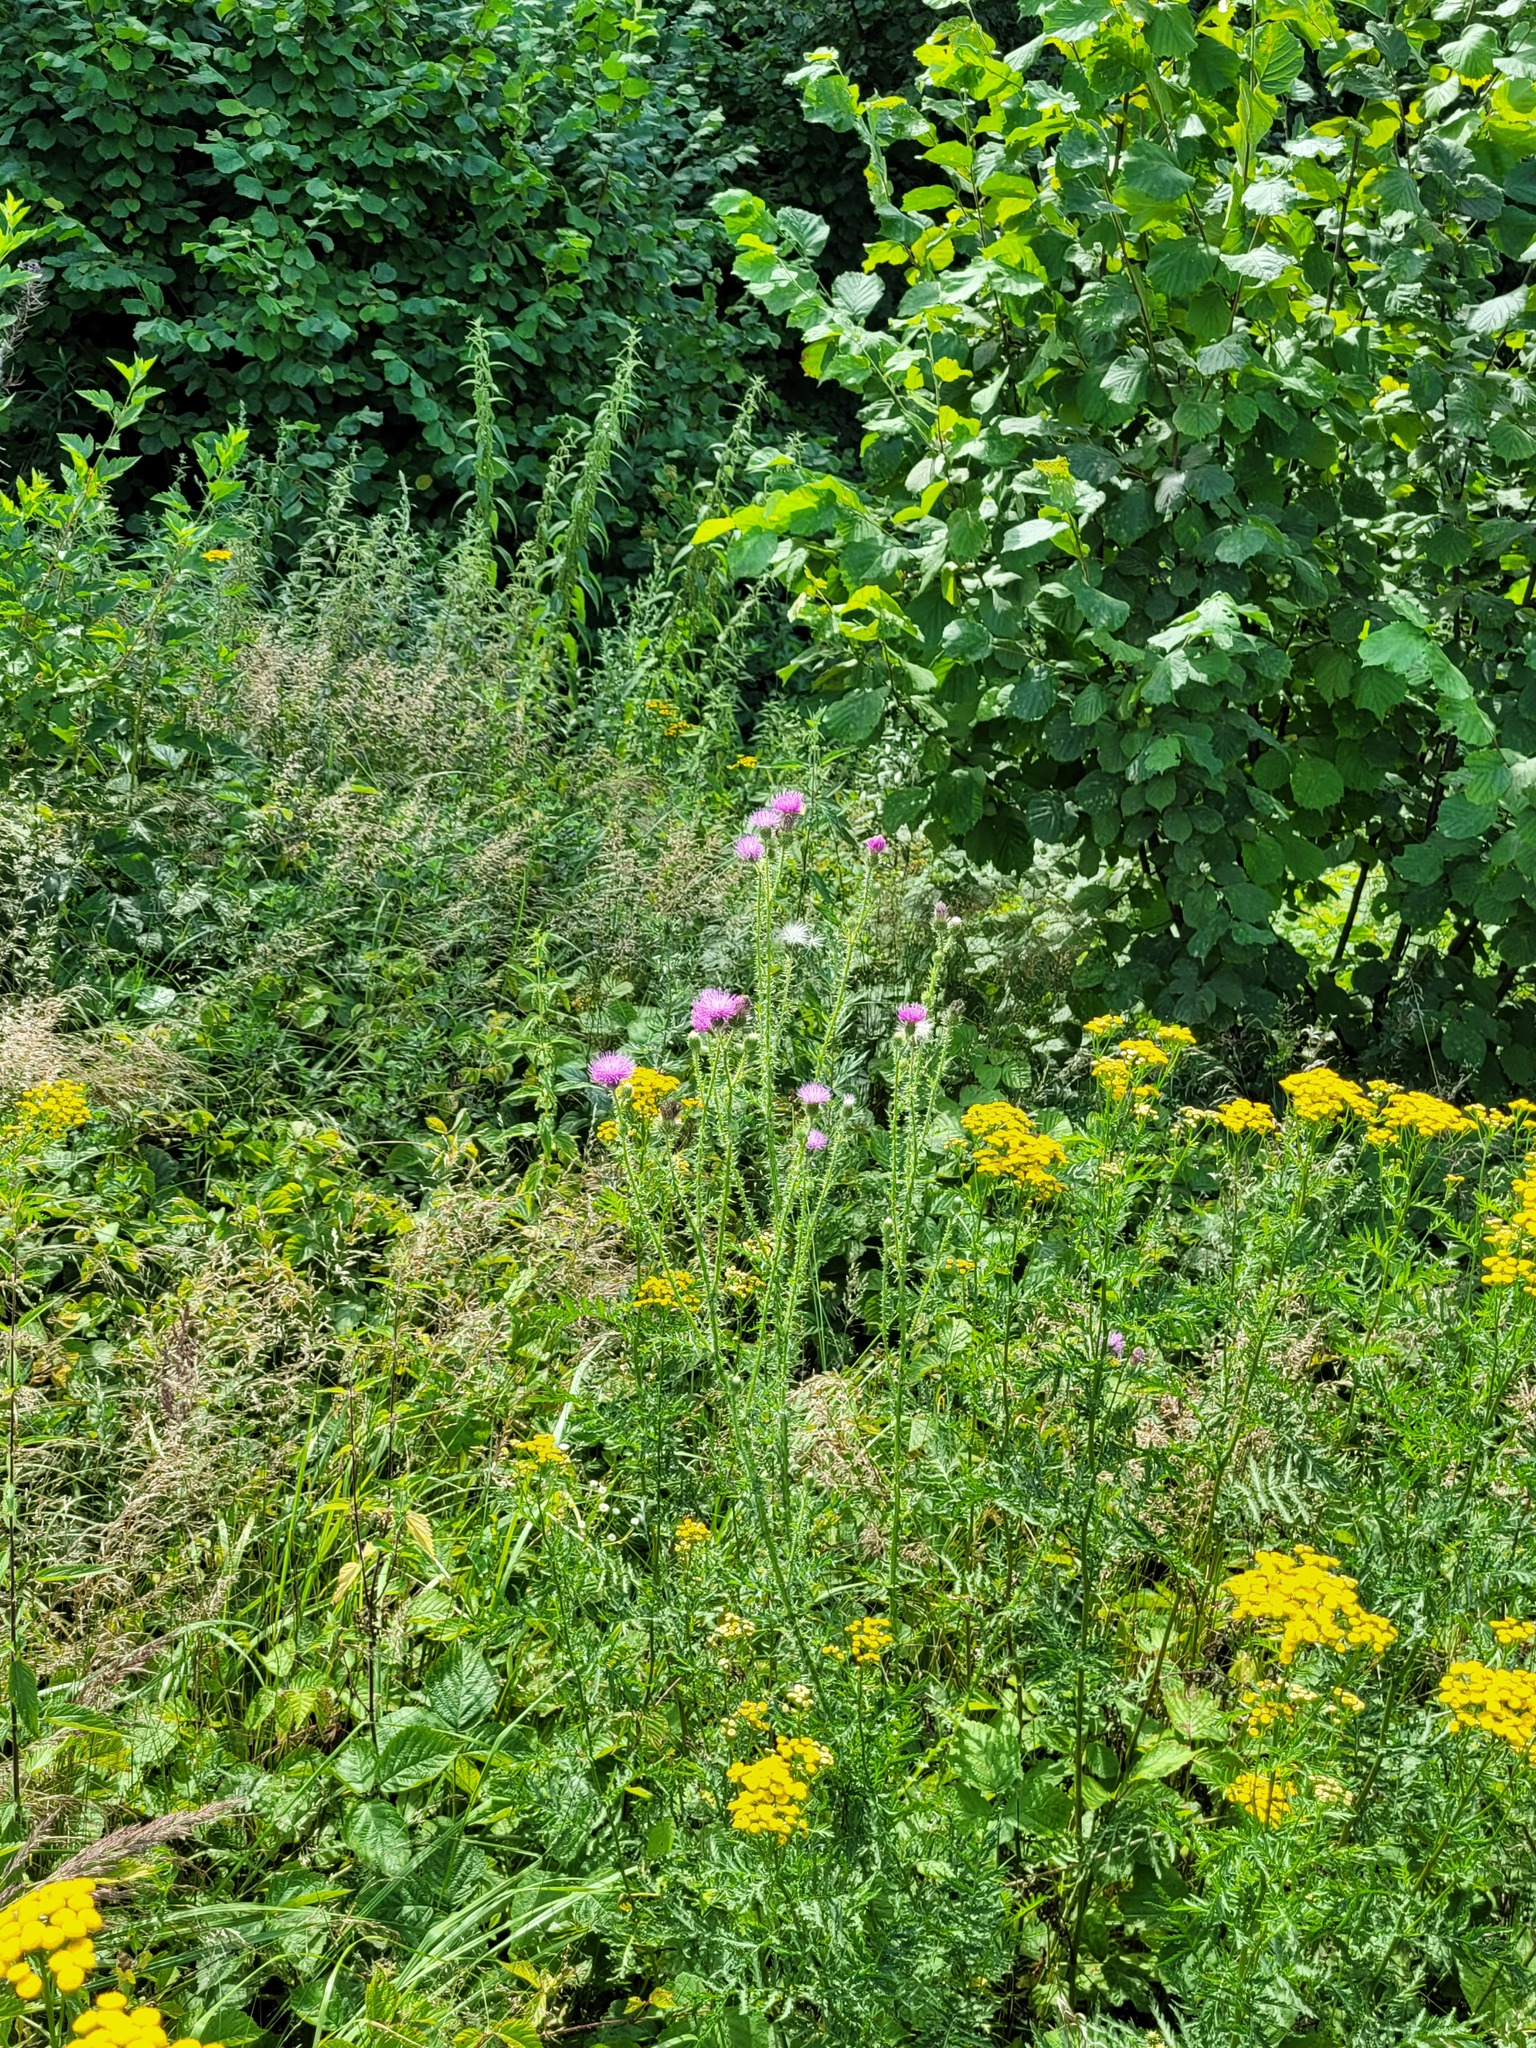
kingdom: Plantae
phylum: Tracheophyta
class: Magnoliopsida
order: Asterales
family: Asteraceae
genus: Carduus
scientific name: Carduus acanthoides
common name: Plumeless thistle
